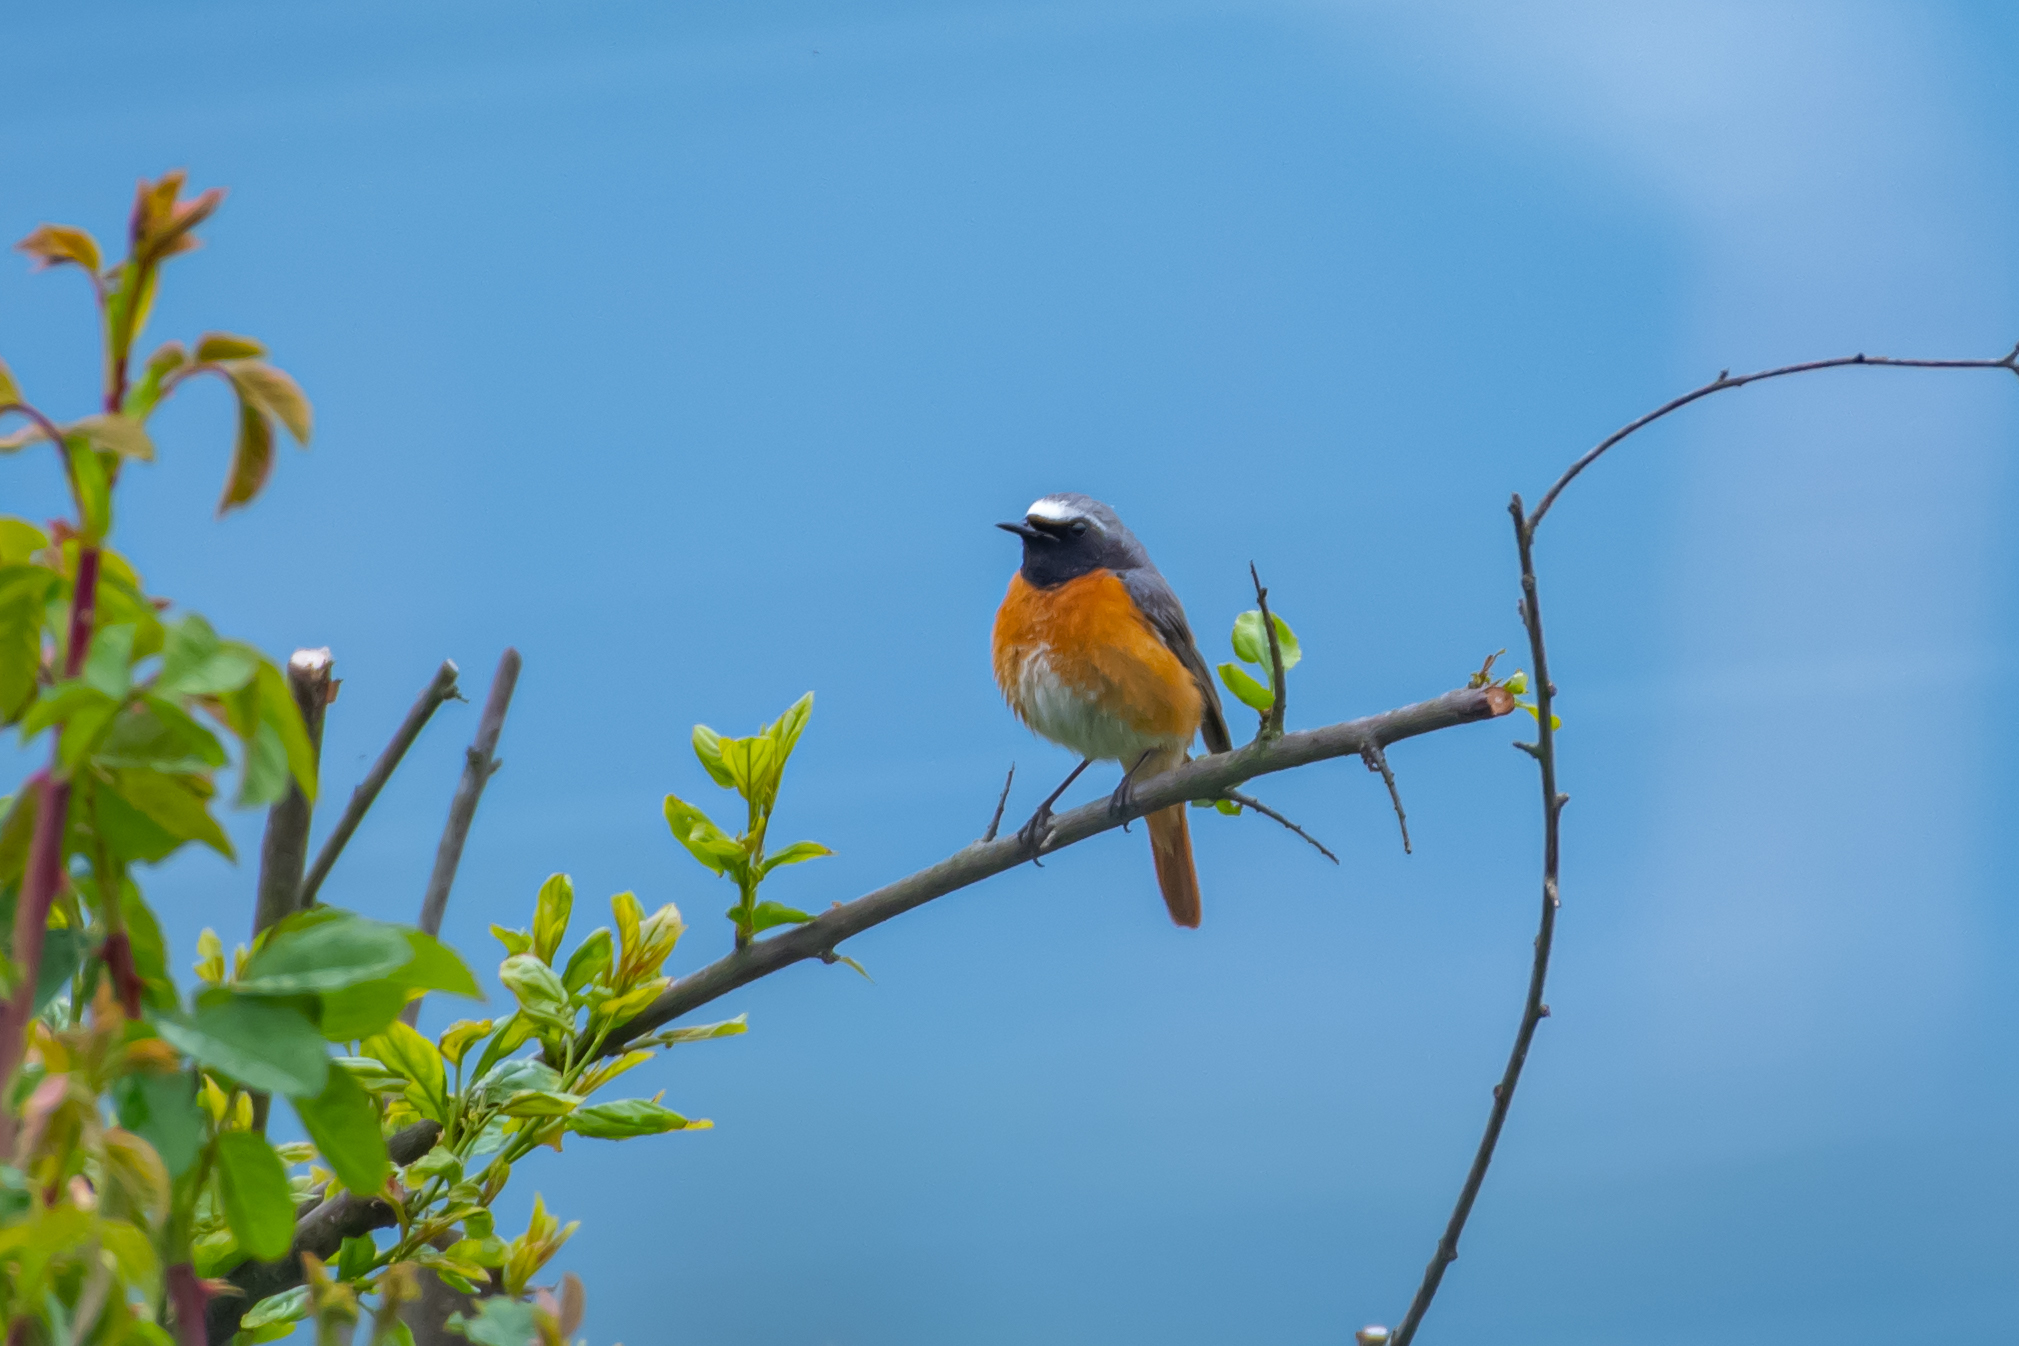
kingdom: Animalia
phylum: Chordata
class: Aves
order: Passeriformes
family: Muscicapidae
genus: Phoenicurus
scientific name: Phoenicurus phoenicurus
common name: Common redstart
